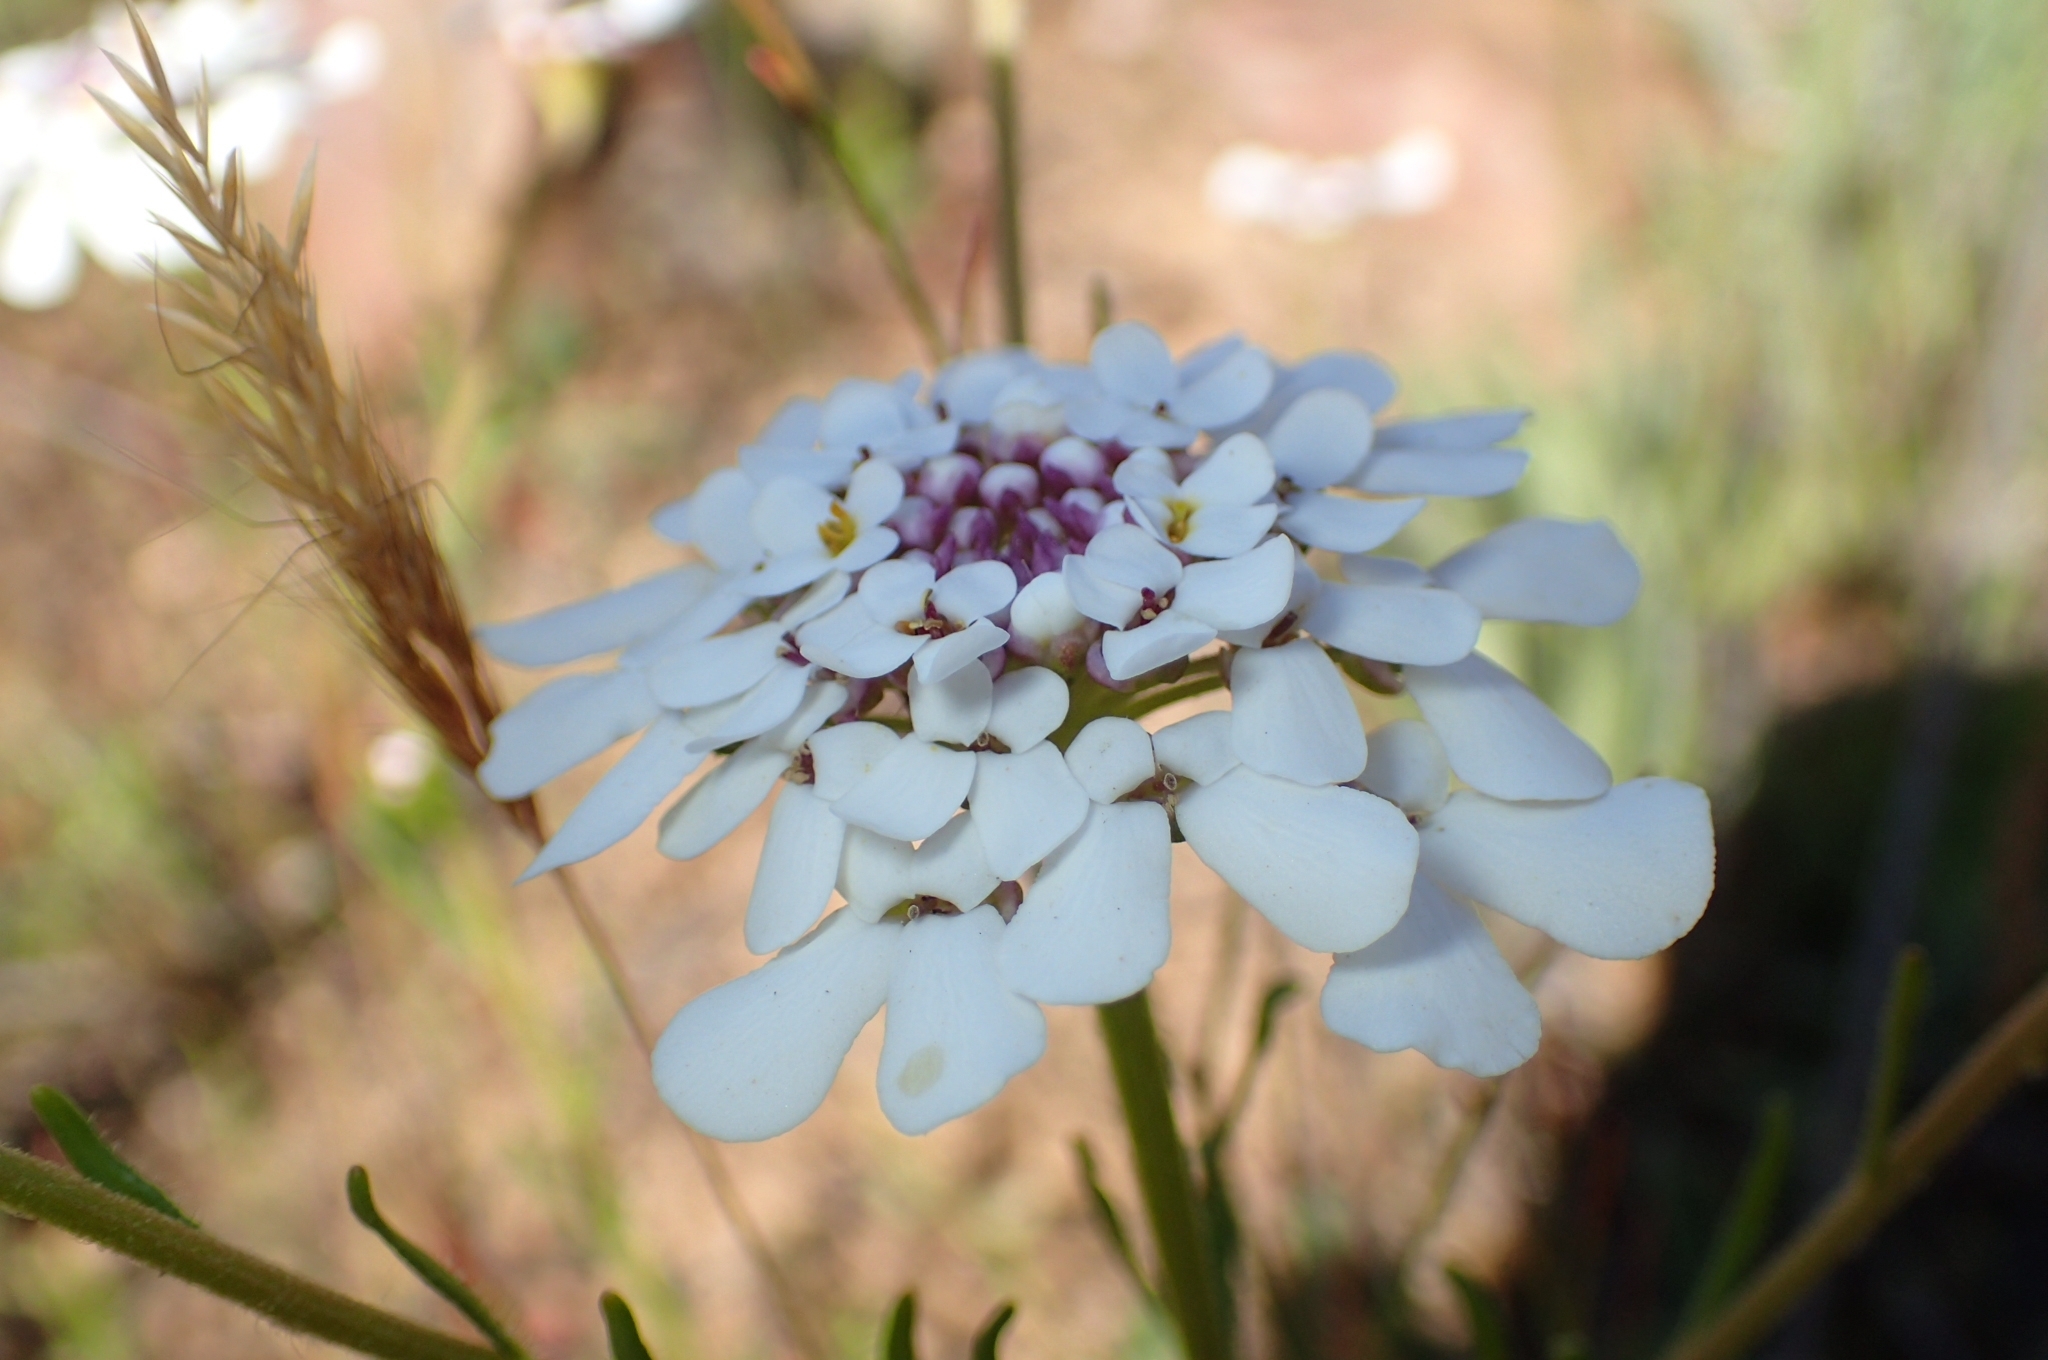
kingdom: Plantae
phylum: Tracheophyta
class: Magnoliopsida
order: Brassicales
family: Brassicaceae
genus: Iberis
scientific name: Iberis pectinata
